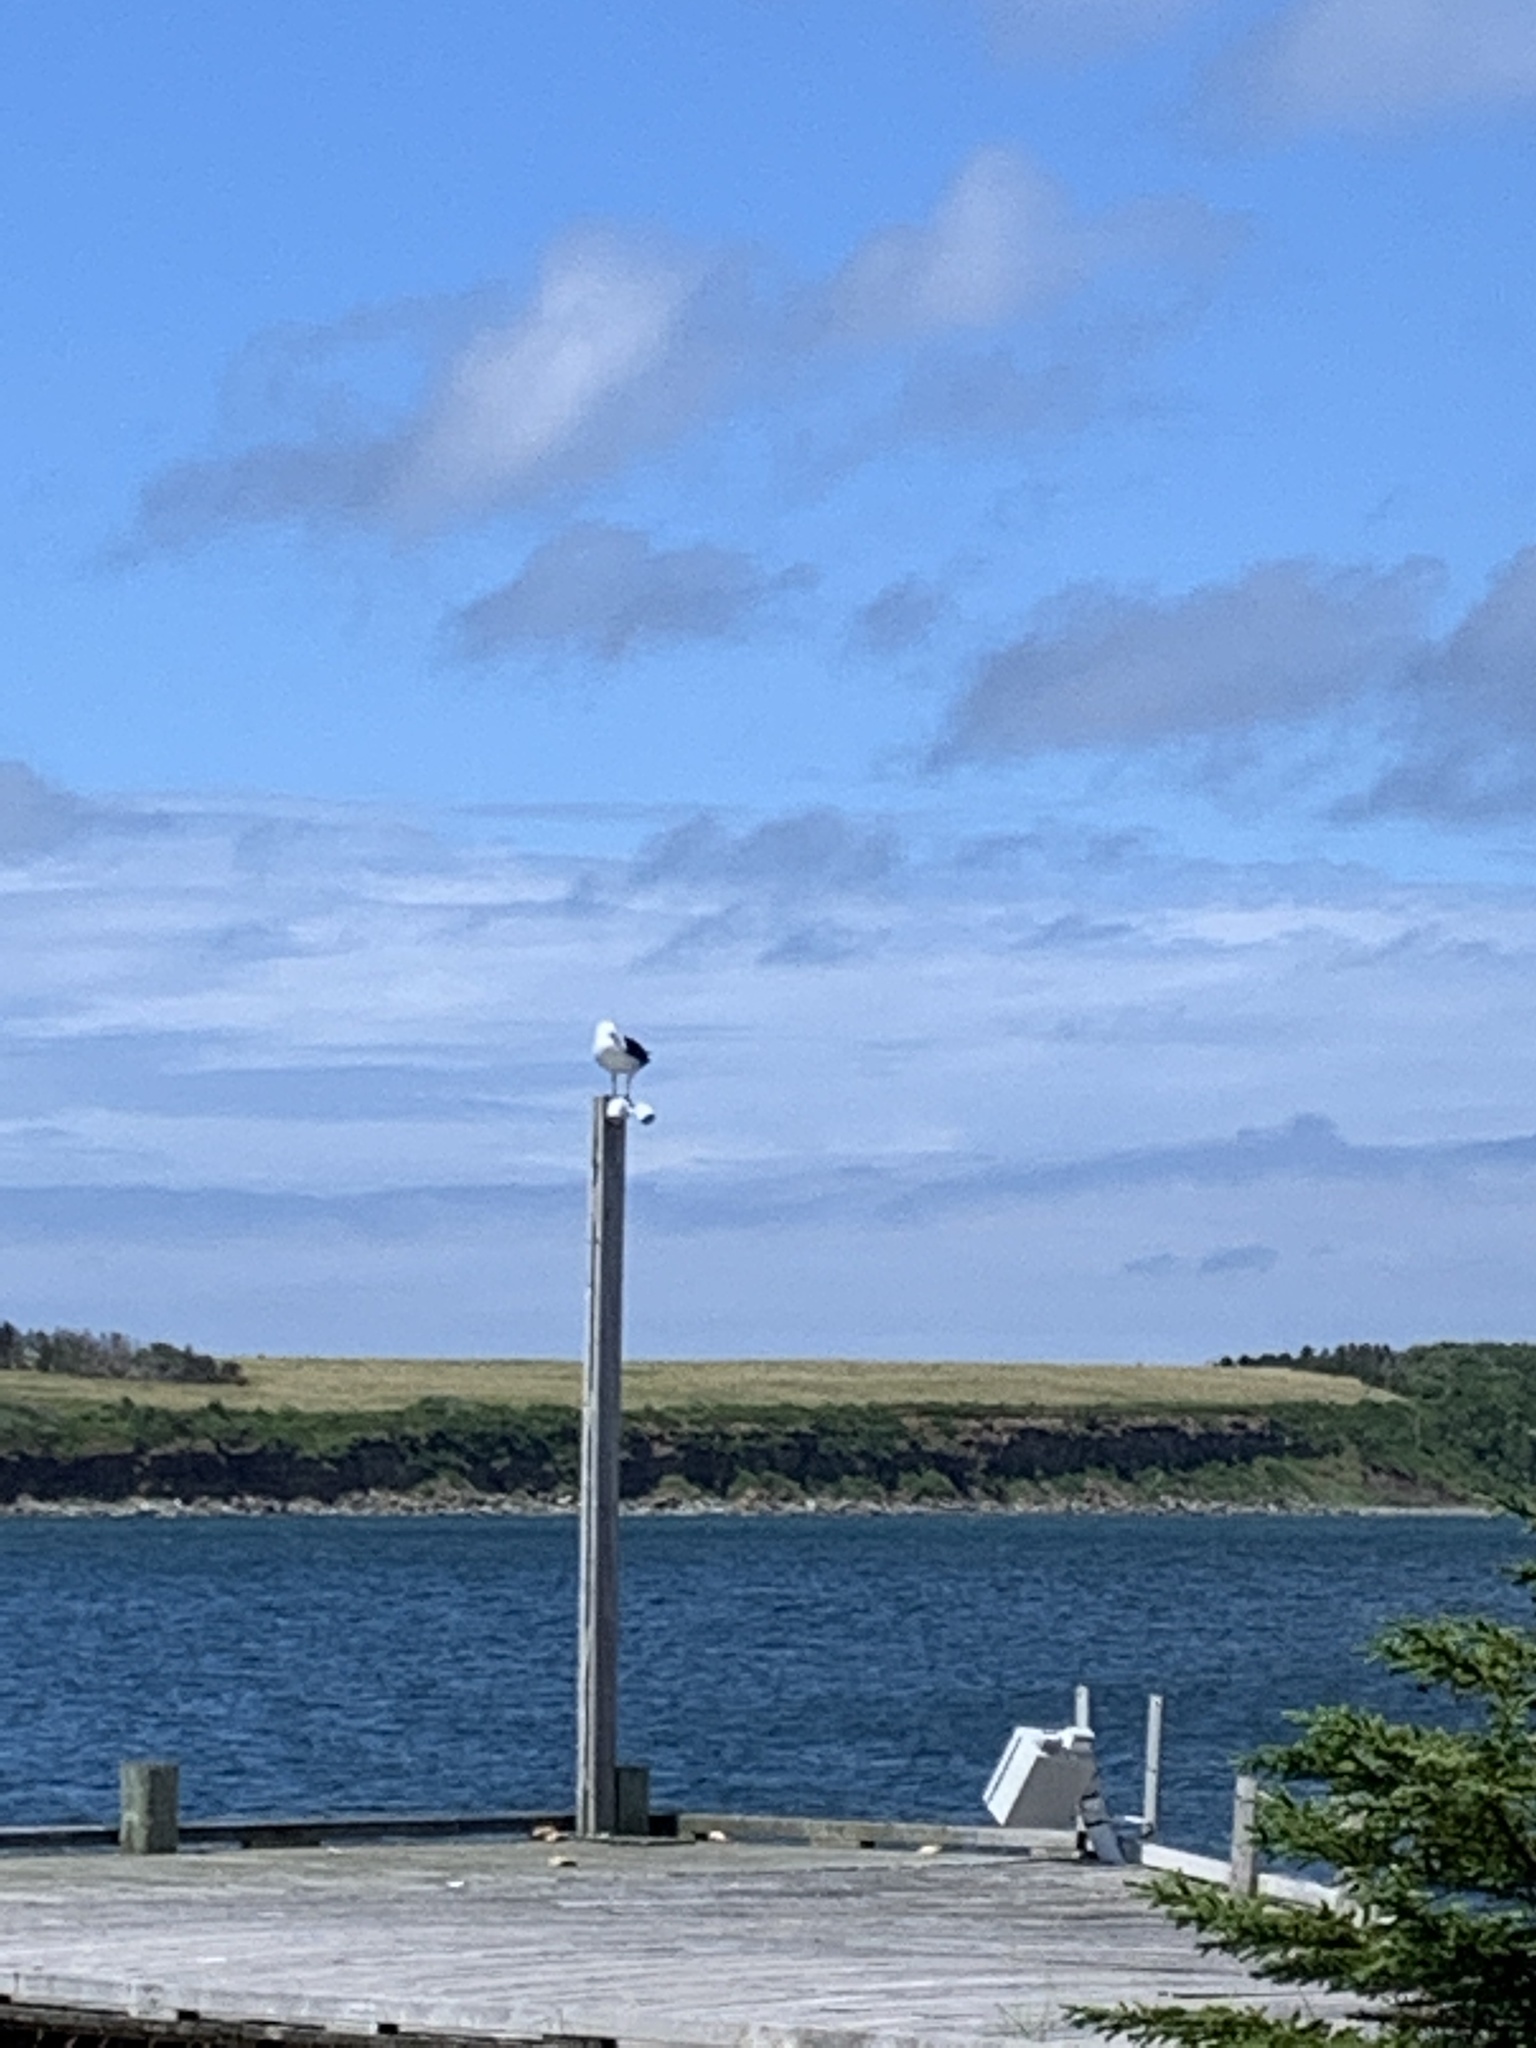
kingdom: Animalia
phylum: Chordata
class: Aves
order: Charadriiformes
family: Laridae
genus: Larus
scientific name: Larus marinus
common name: Great black-backed gull
